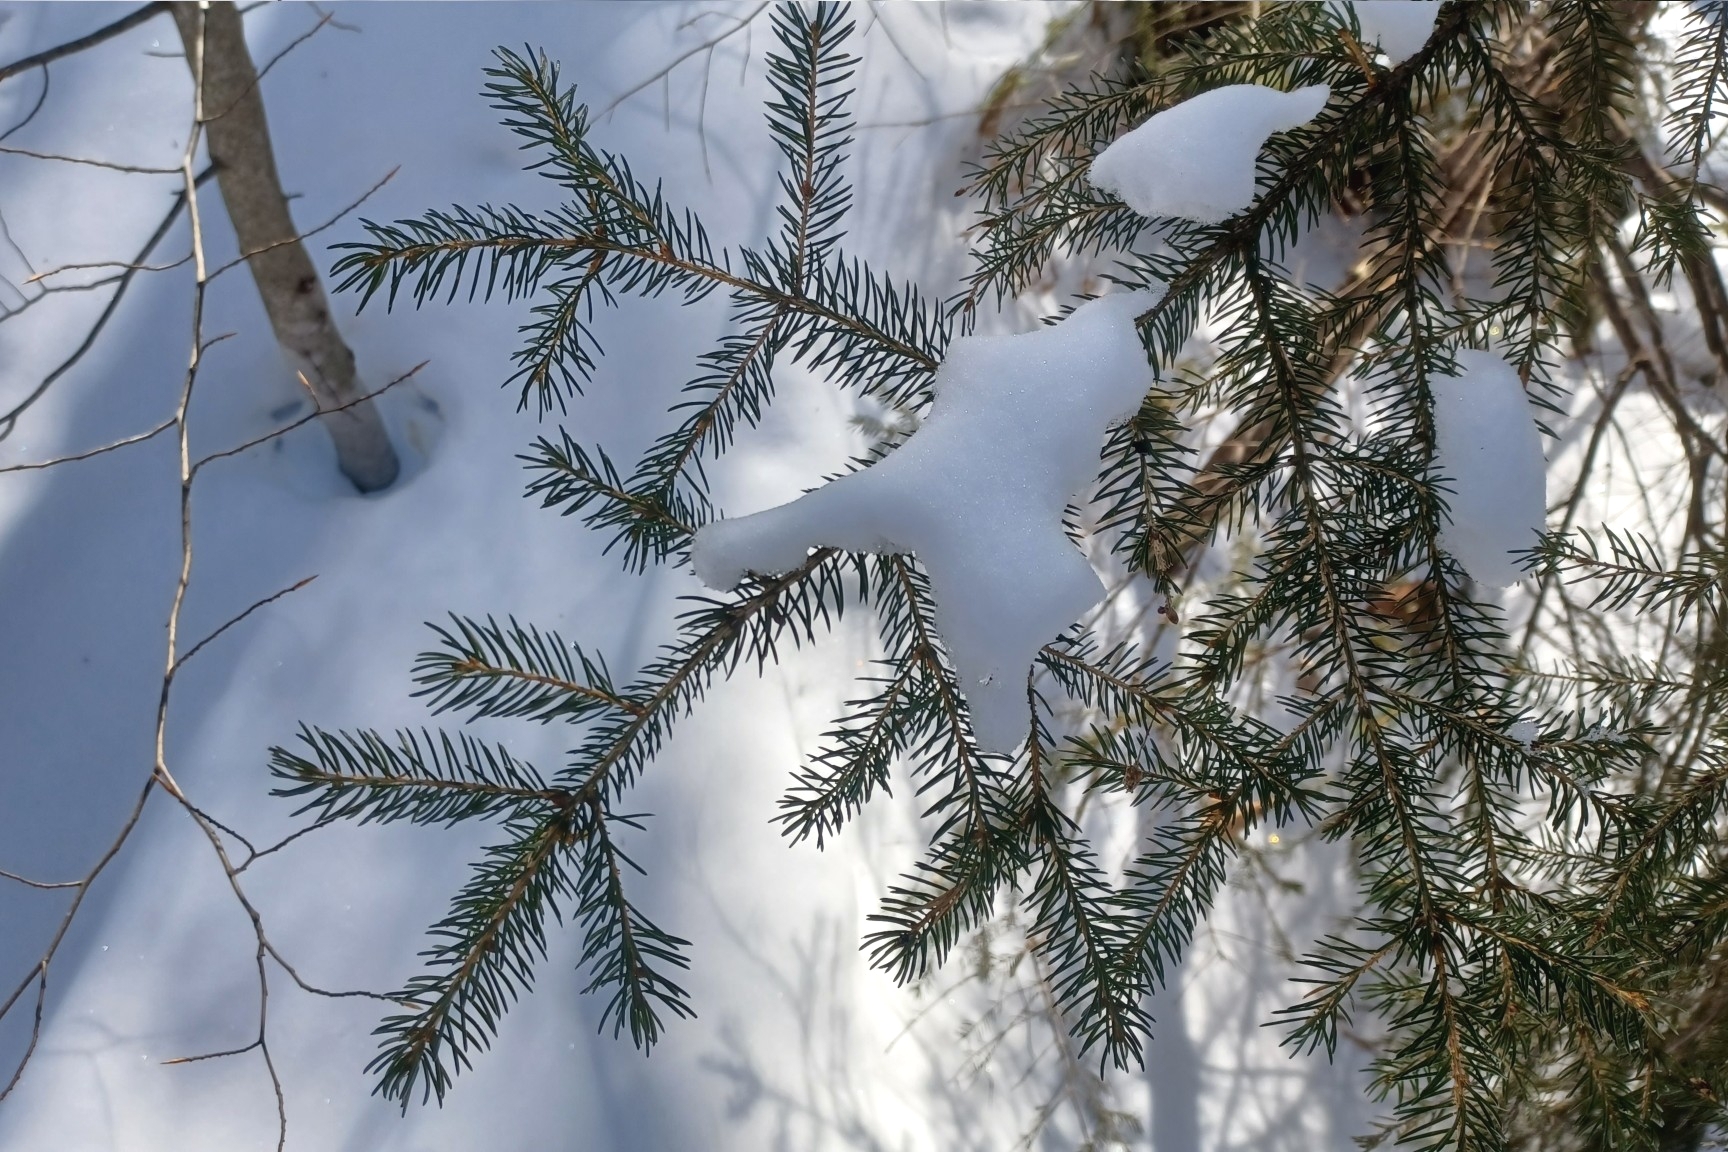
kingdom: Plantae
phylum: Tracheophyta
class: Pinopsida
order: Pinales
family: Pinaceae
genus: Picea
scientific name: Picea rubens
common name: Red spruce
